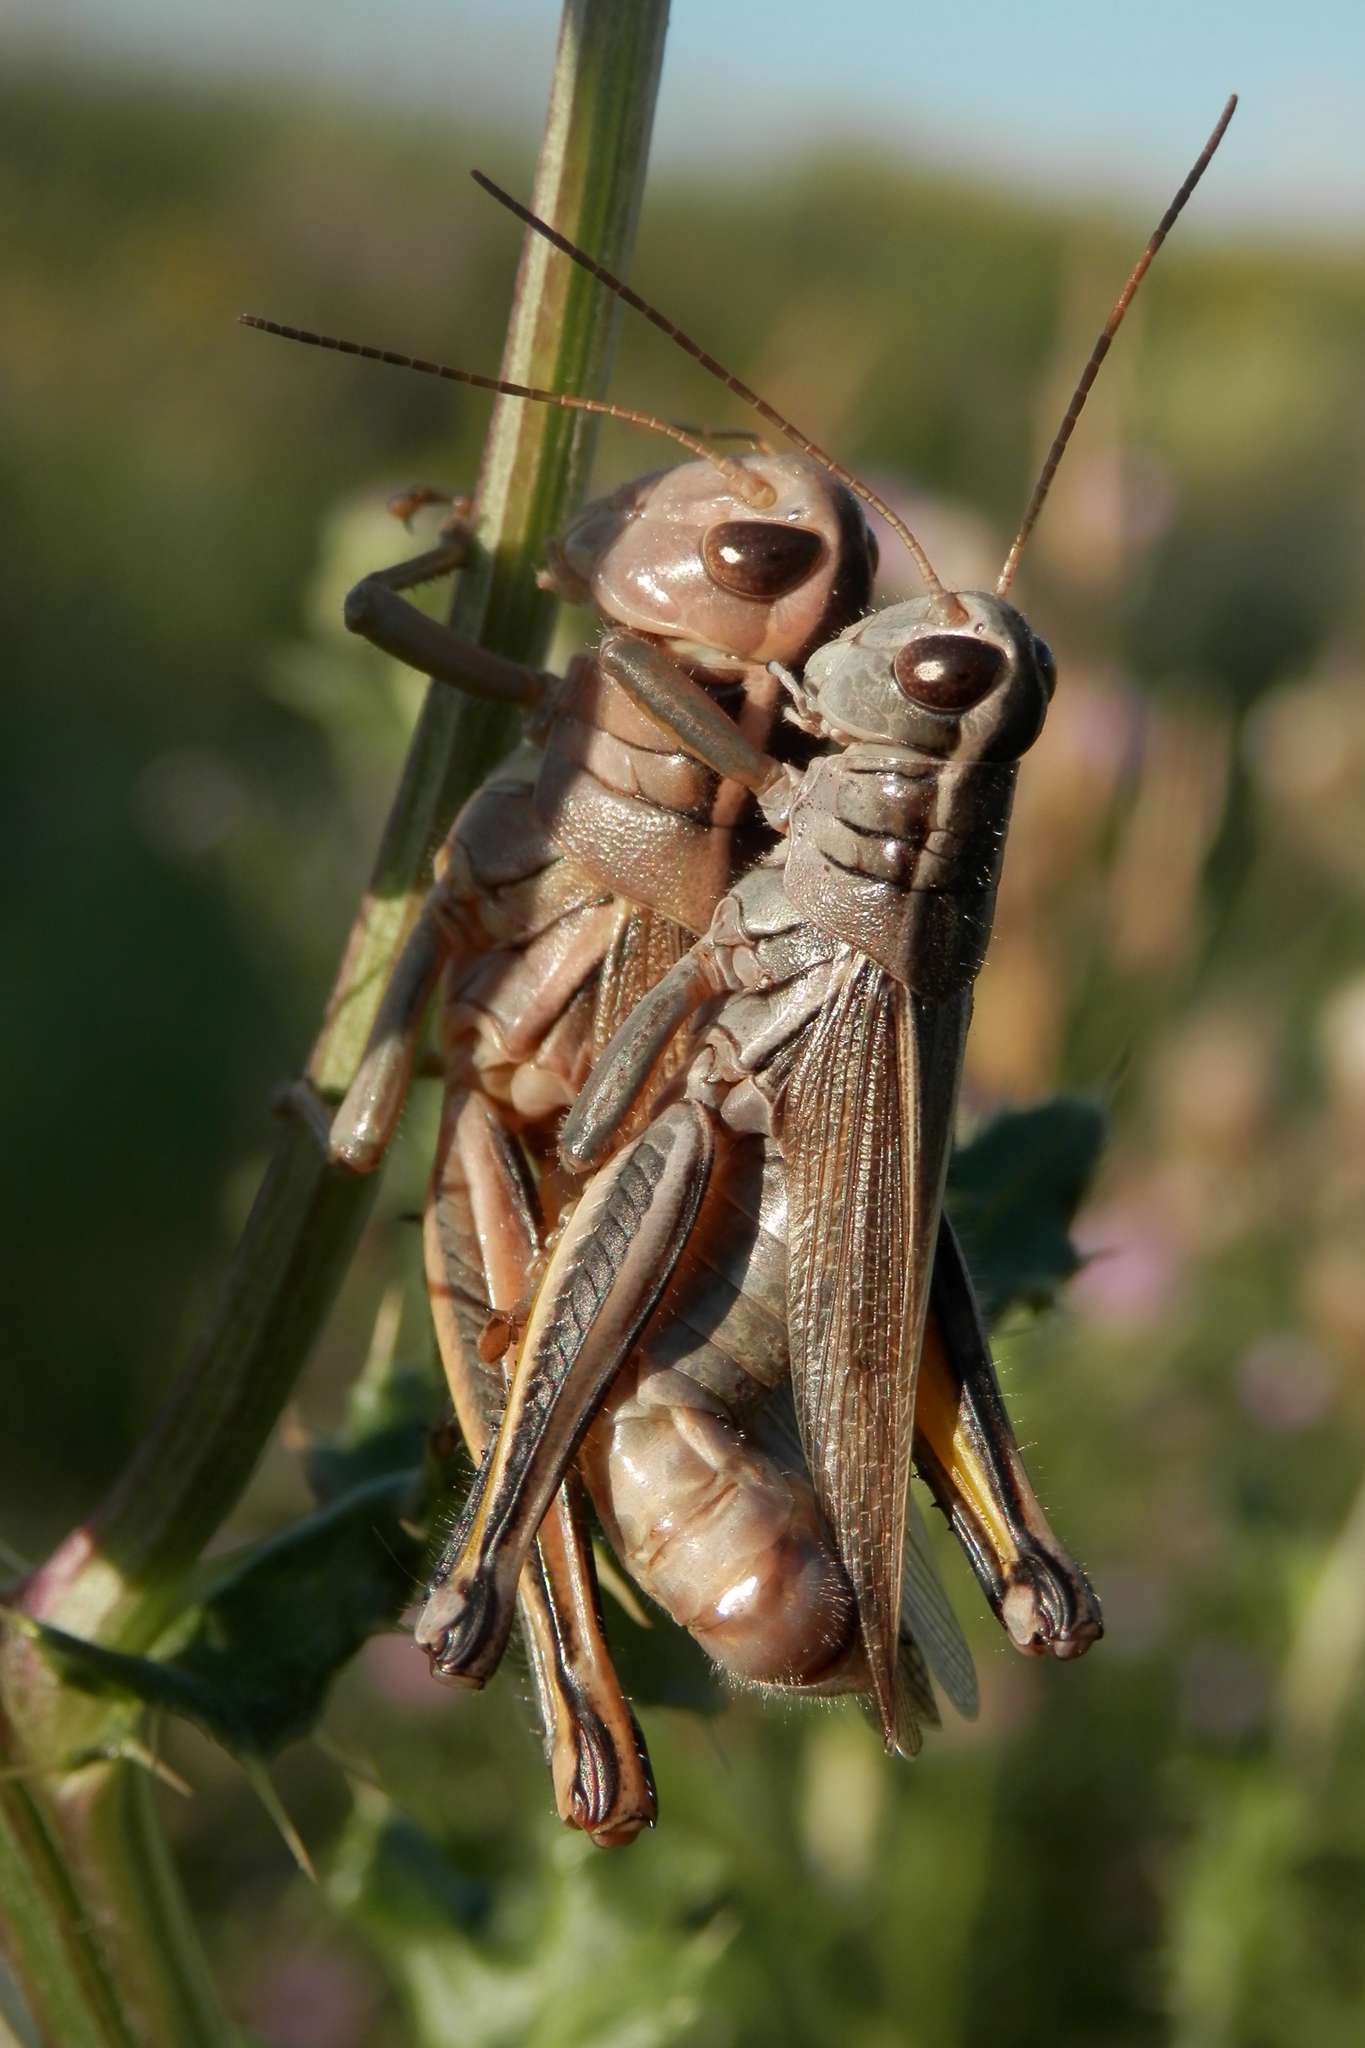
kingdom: Animalia
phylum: Arthropoda
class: Insecta
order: Orthoptera
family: Acrididae
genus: Melanoplus
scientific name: Melanoplus bivittatus
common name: Two-striped grasshopper
